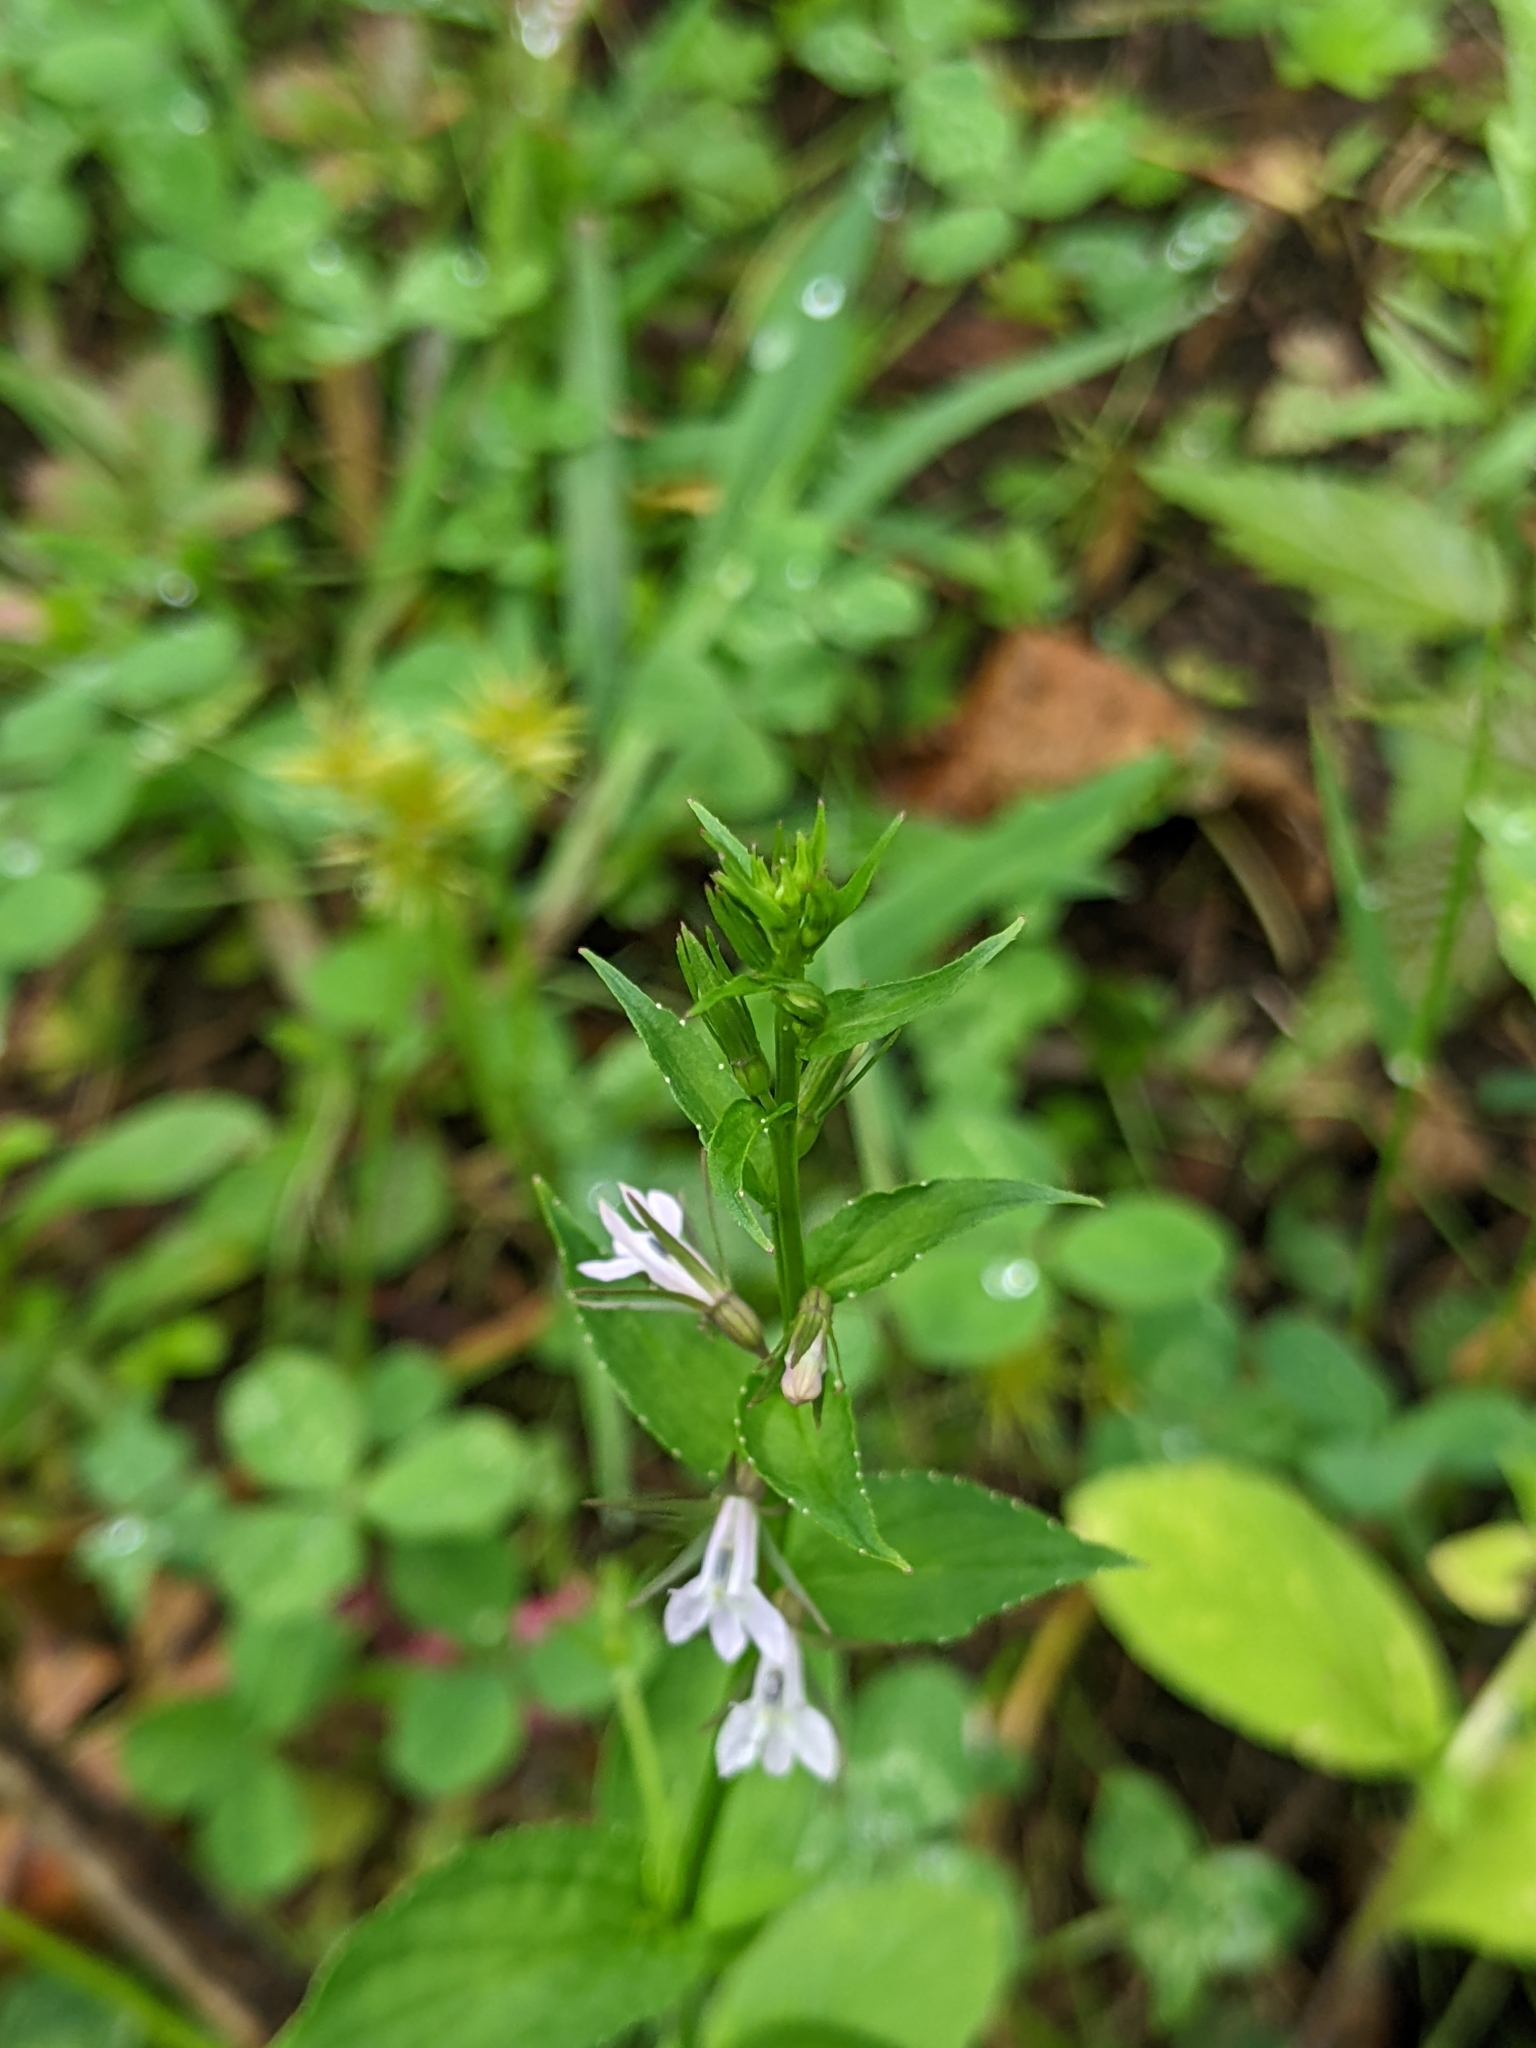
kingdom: Plantae
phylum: Tracheophyta
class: Magnoliopsida
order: Asterales
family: Campanulaceae
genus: Lobelia
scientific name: Lobelia inflata
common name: Indian tobacco
